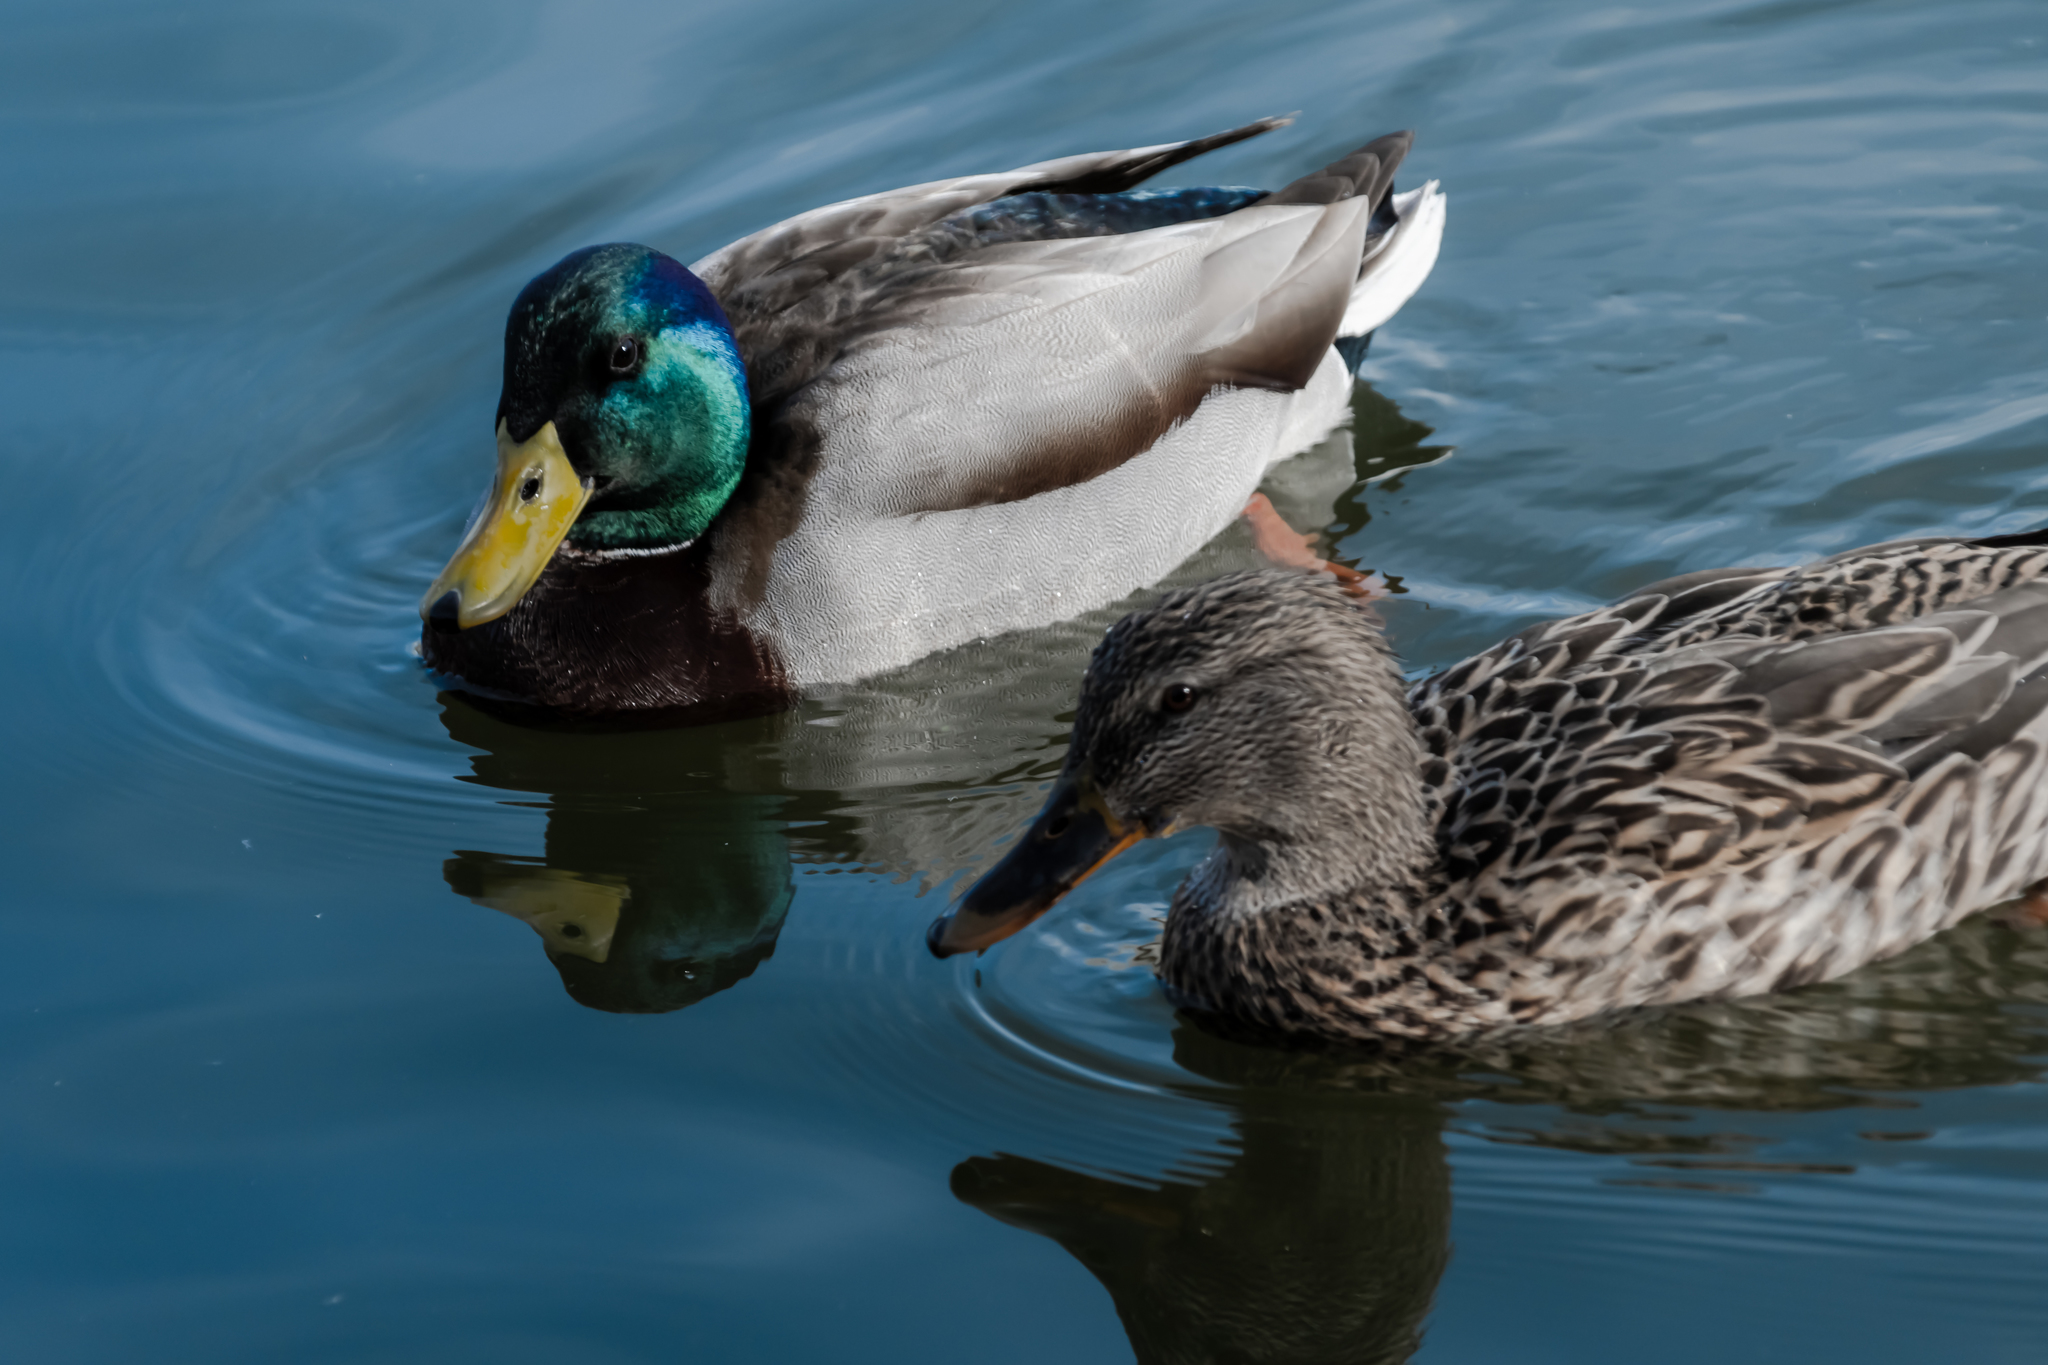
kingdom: Animalia
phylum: Chordata
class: Aves
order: Anseriformes
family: Anatidae
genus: Anas
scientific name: Anas platyrhynchos
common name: Mallard
